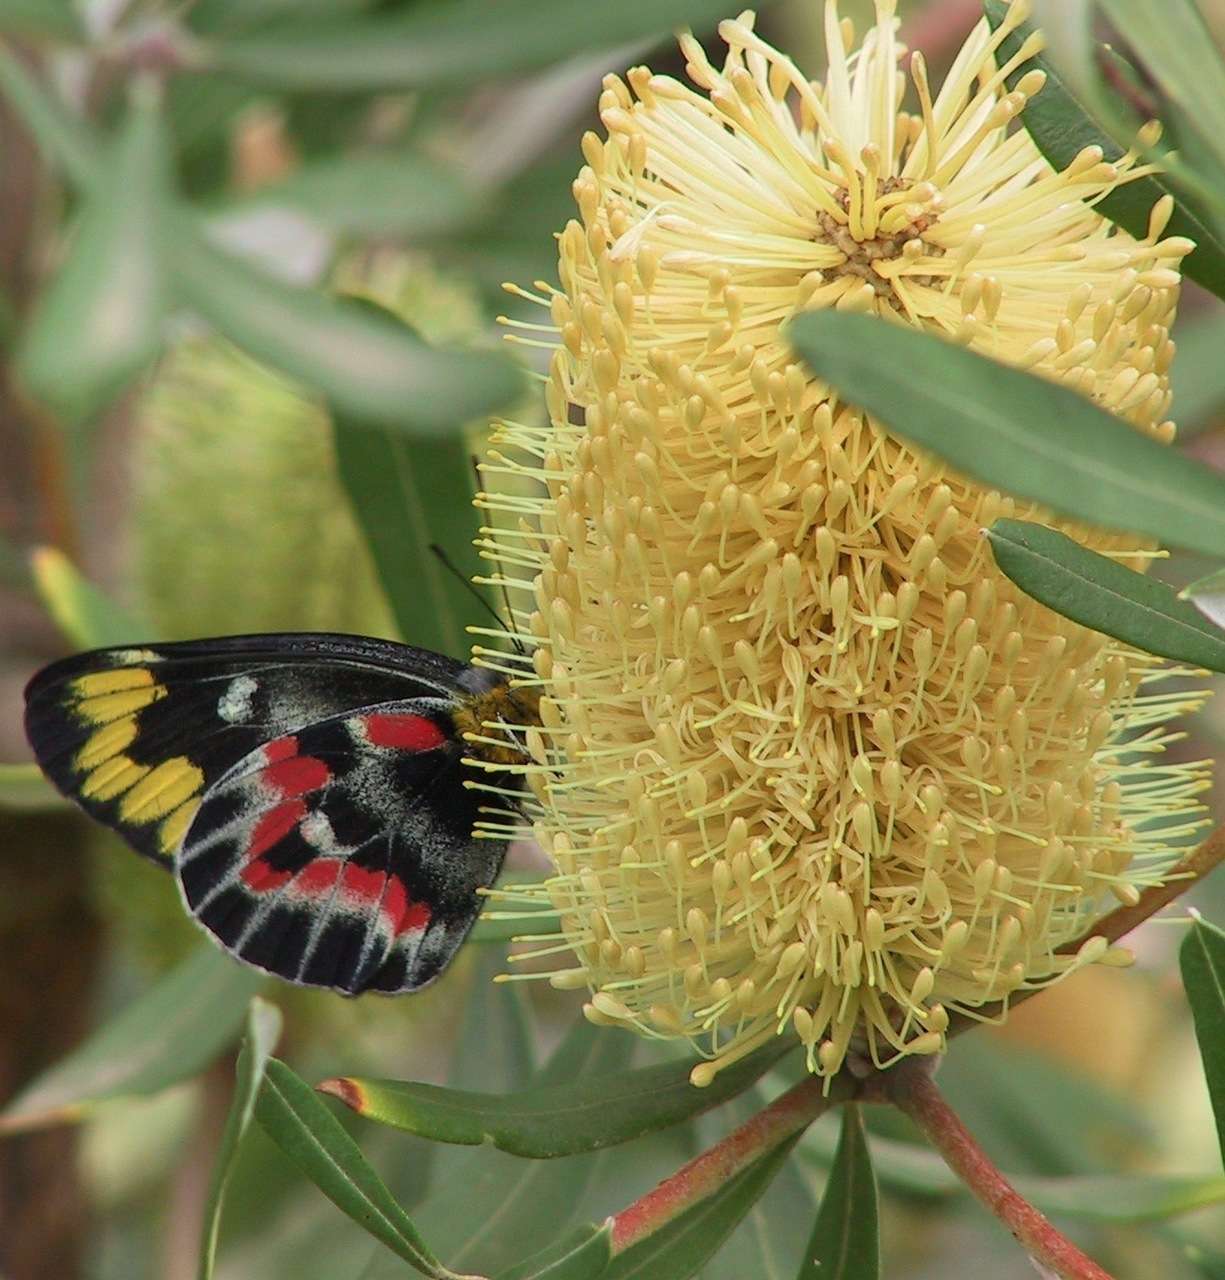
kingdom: Animalia
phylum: Arthropoda
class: Insecta
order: Lepidoptera
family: Pieridae
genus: Delias
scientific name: Delias harpalyce
